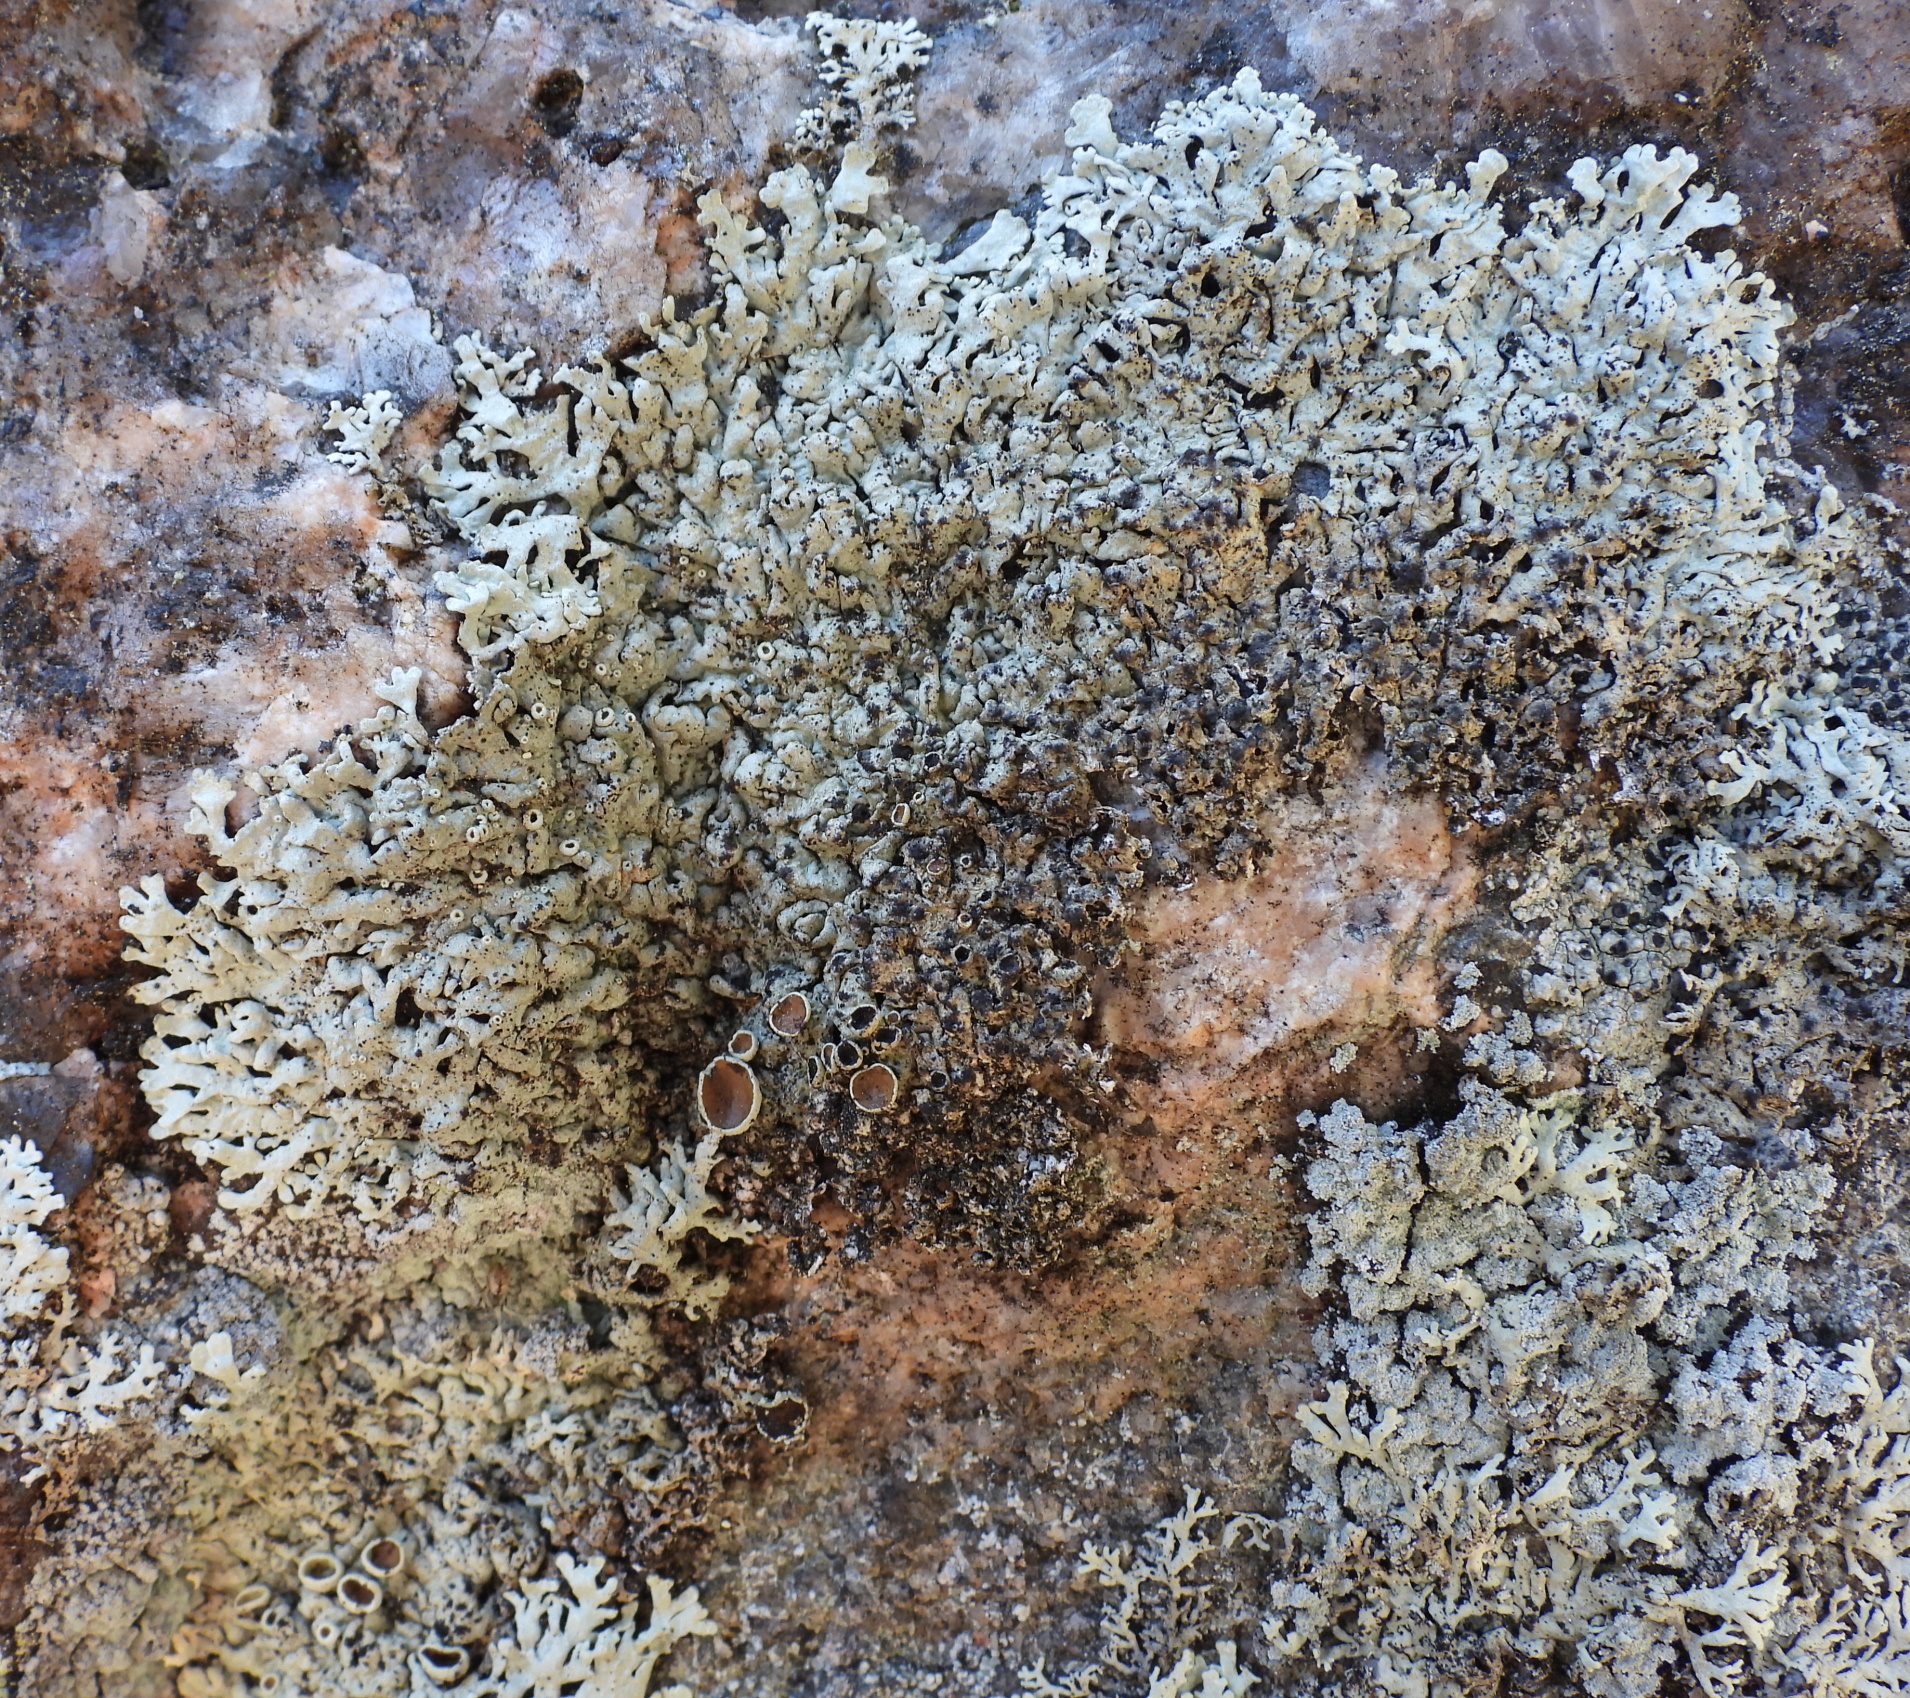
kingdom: Fungi
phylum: Ascomycota
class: Lecanoromycetes
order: Lecanorales
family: Parmeliaceae
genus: Arctoparmelia
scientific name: Arctoparmelia centrifuga
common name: Concentric ring lichen
